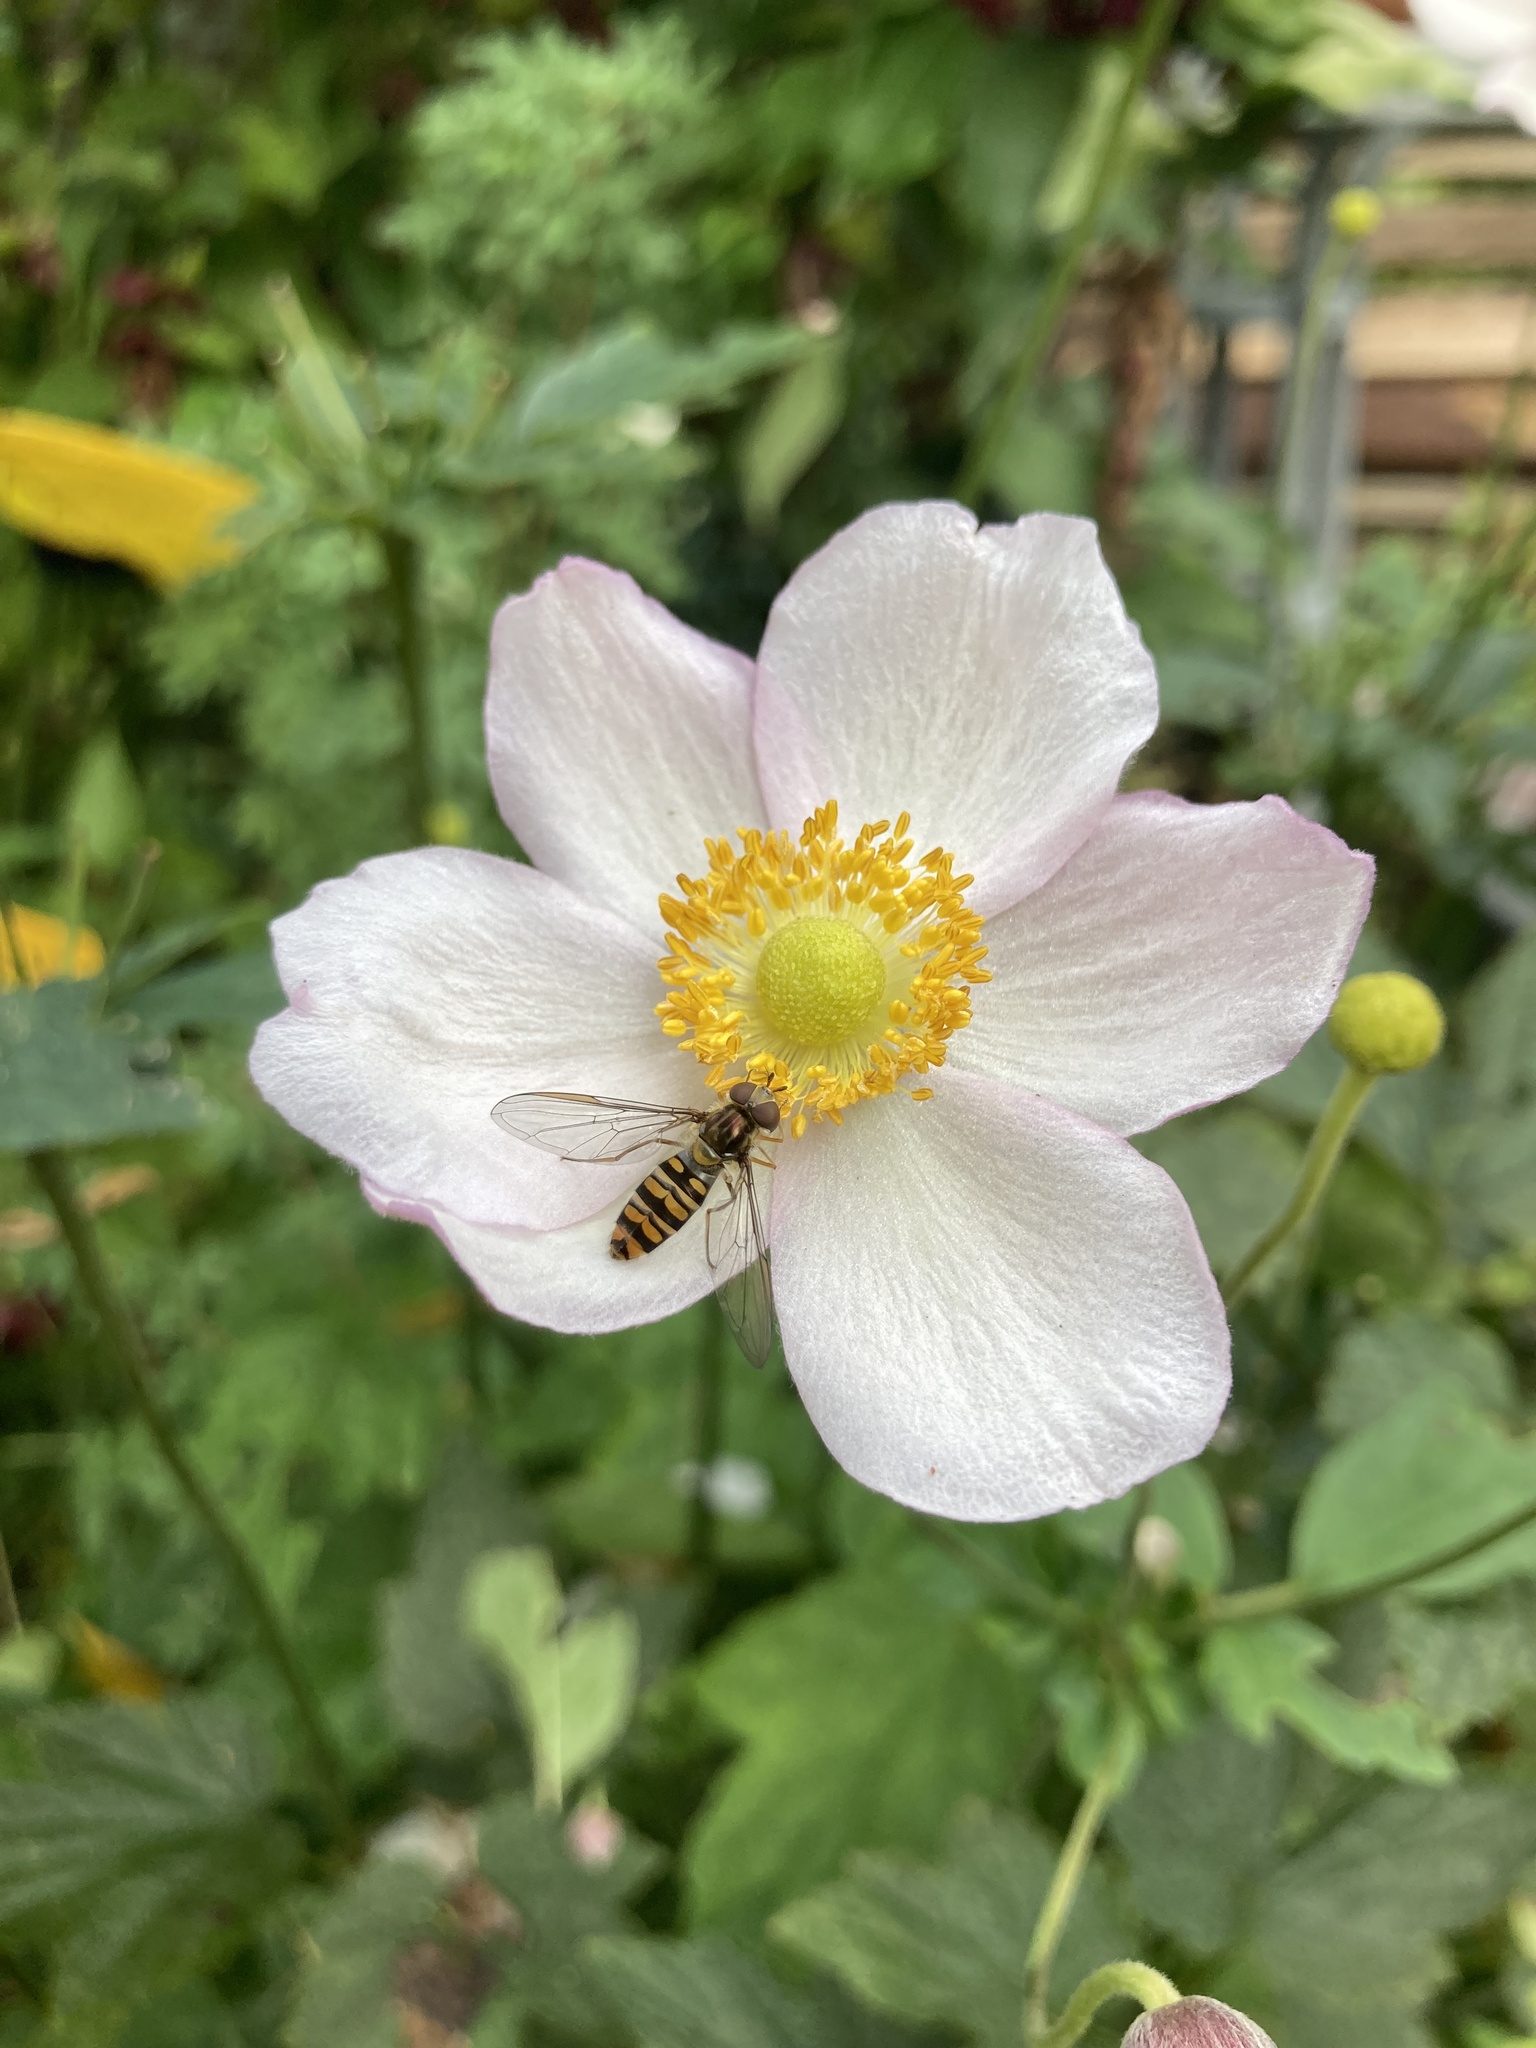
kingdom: Animalia
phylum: Arthropoda
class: Insecta
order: Diptera
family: Syrphidae
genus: Episyrphus
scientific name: Episyrphus balteatus
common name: Marmalade hoverfly
